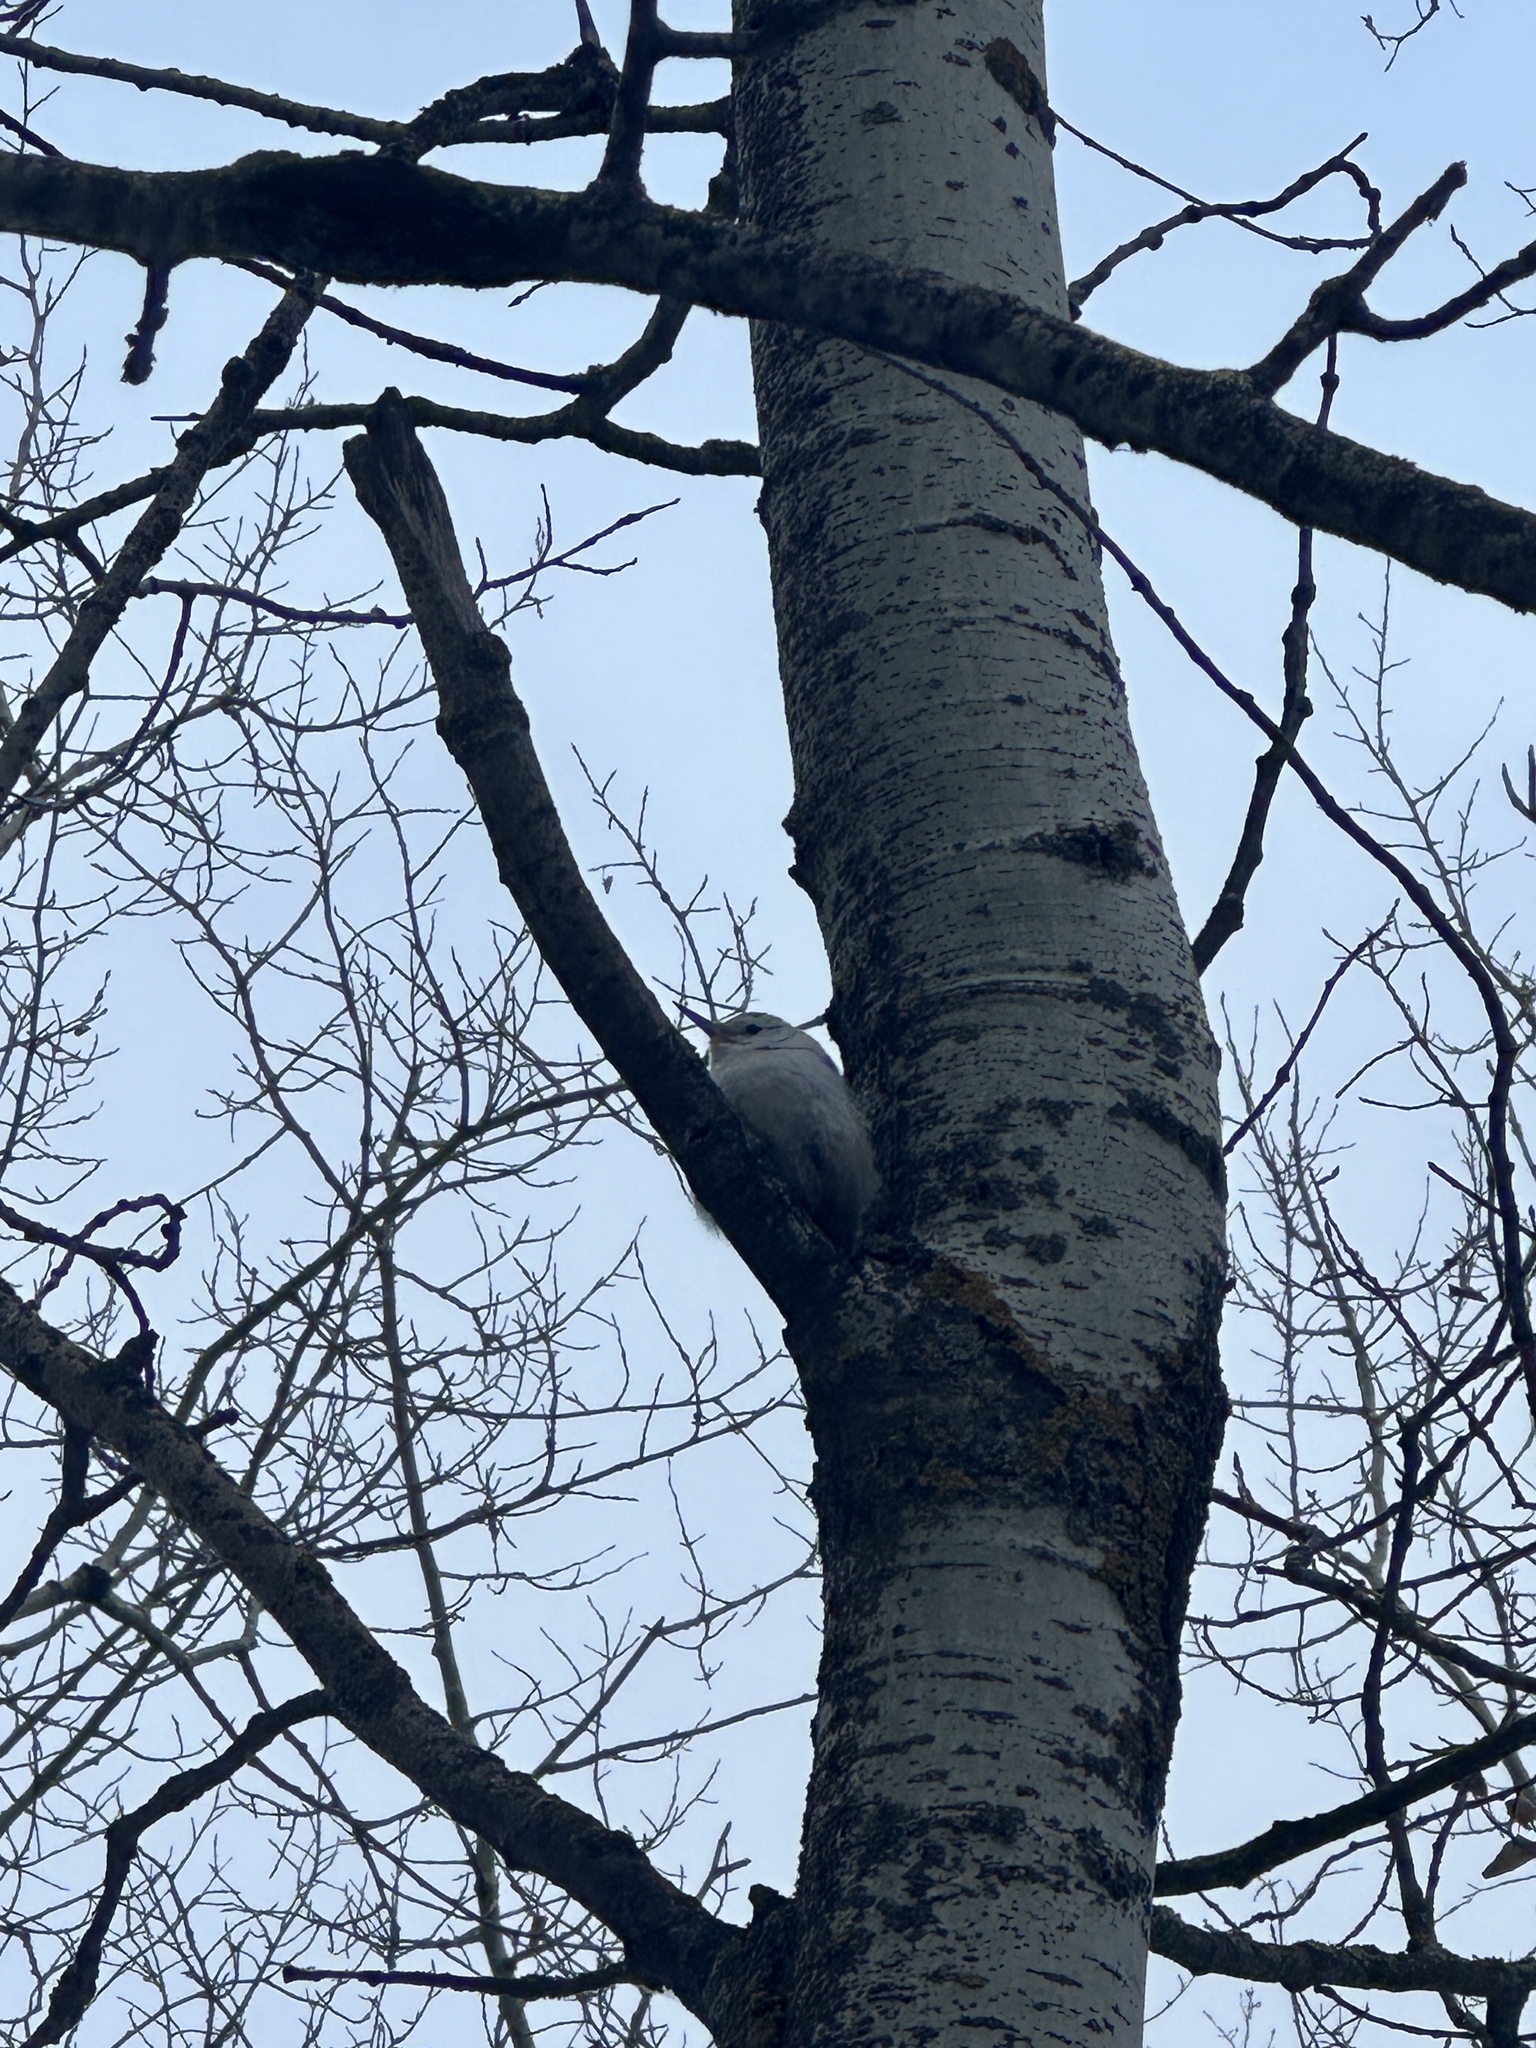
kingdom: Animalia
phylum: Chordata
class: Aves
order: Passeriformes
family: Sittidae
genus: Sitta
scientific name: Sitta carolinensis
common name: White-breasted nuthatch
